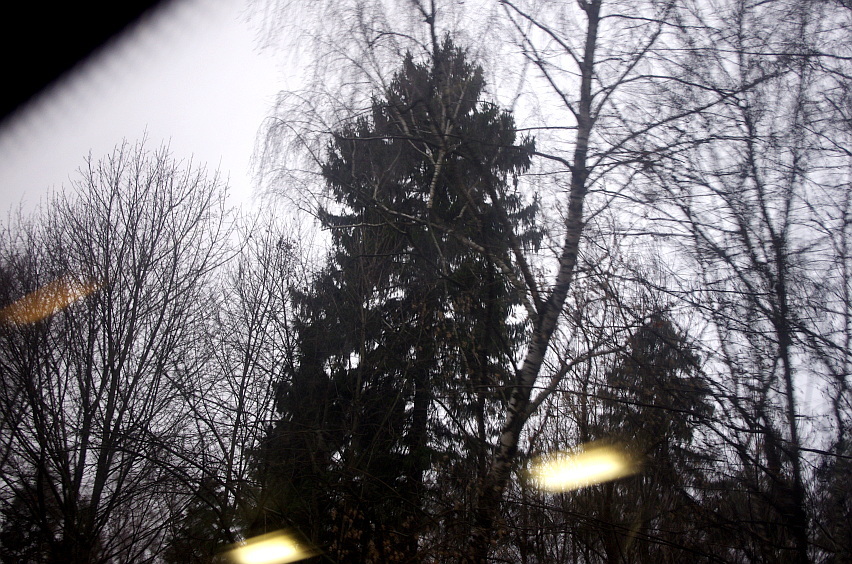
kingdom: Plantae
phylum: Tracheophyta
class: Pinopsida
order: Pinales
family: Pinaceae
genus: Picea
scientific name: Picea abies
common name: Norway spruce
